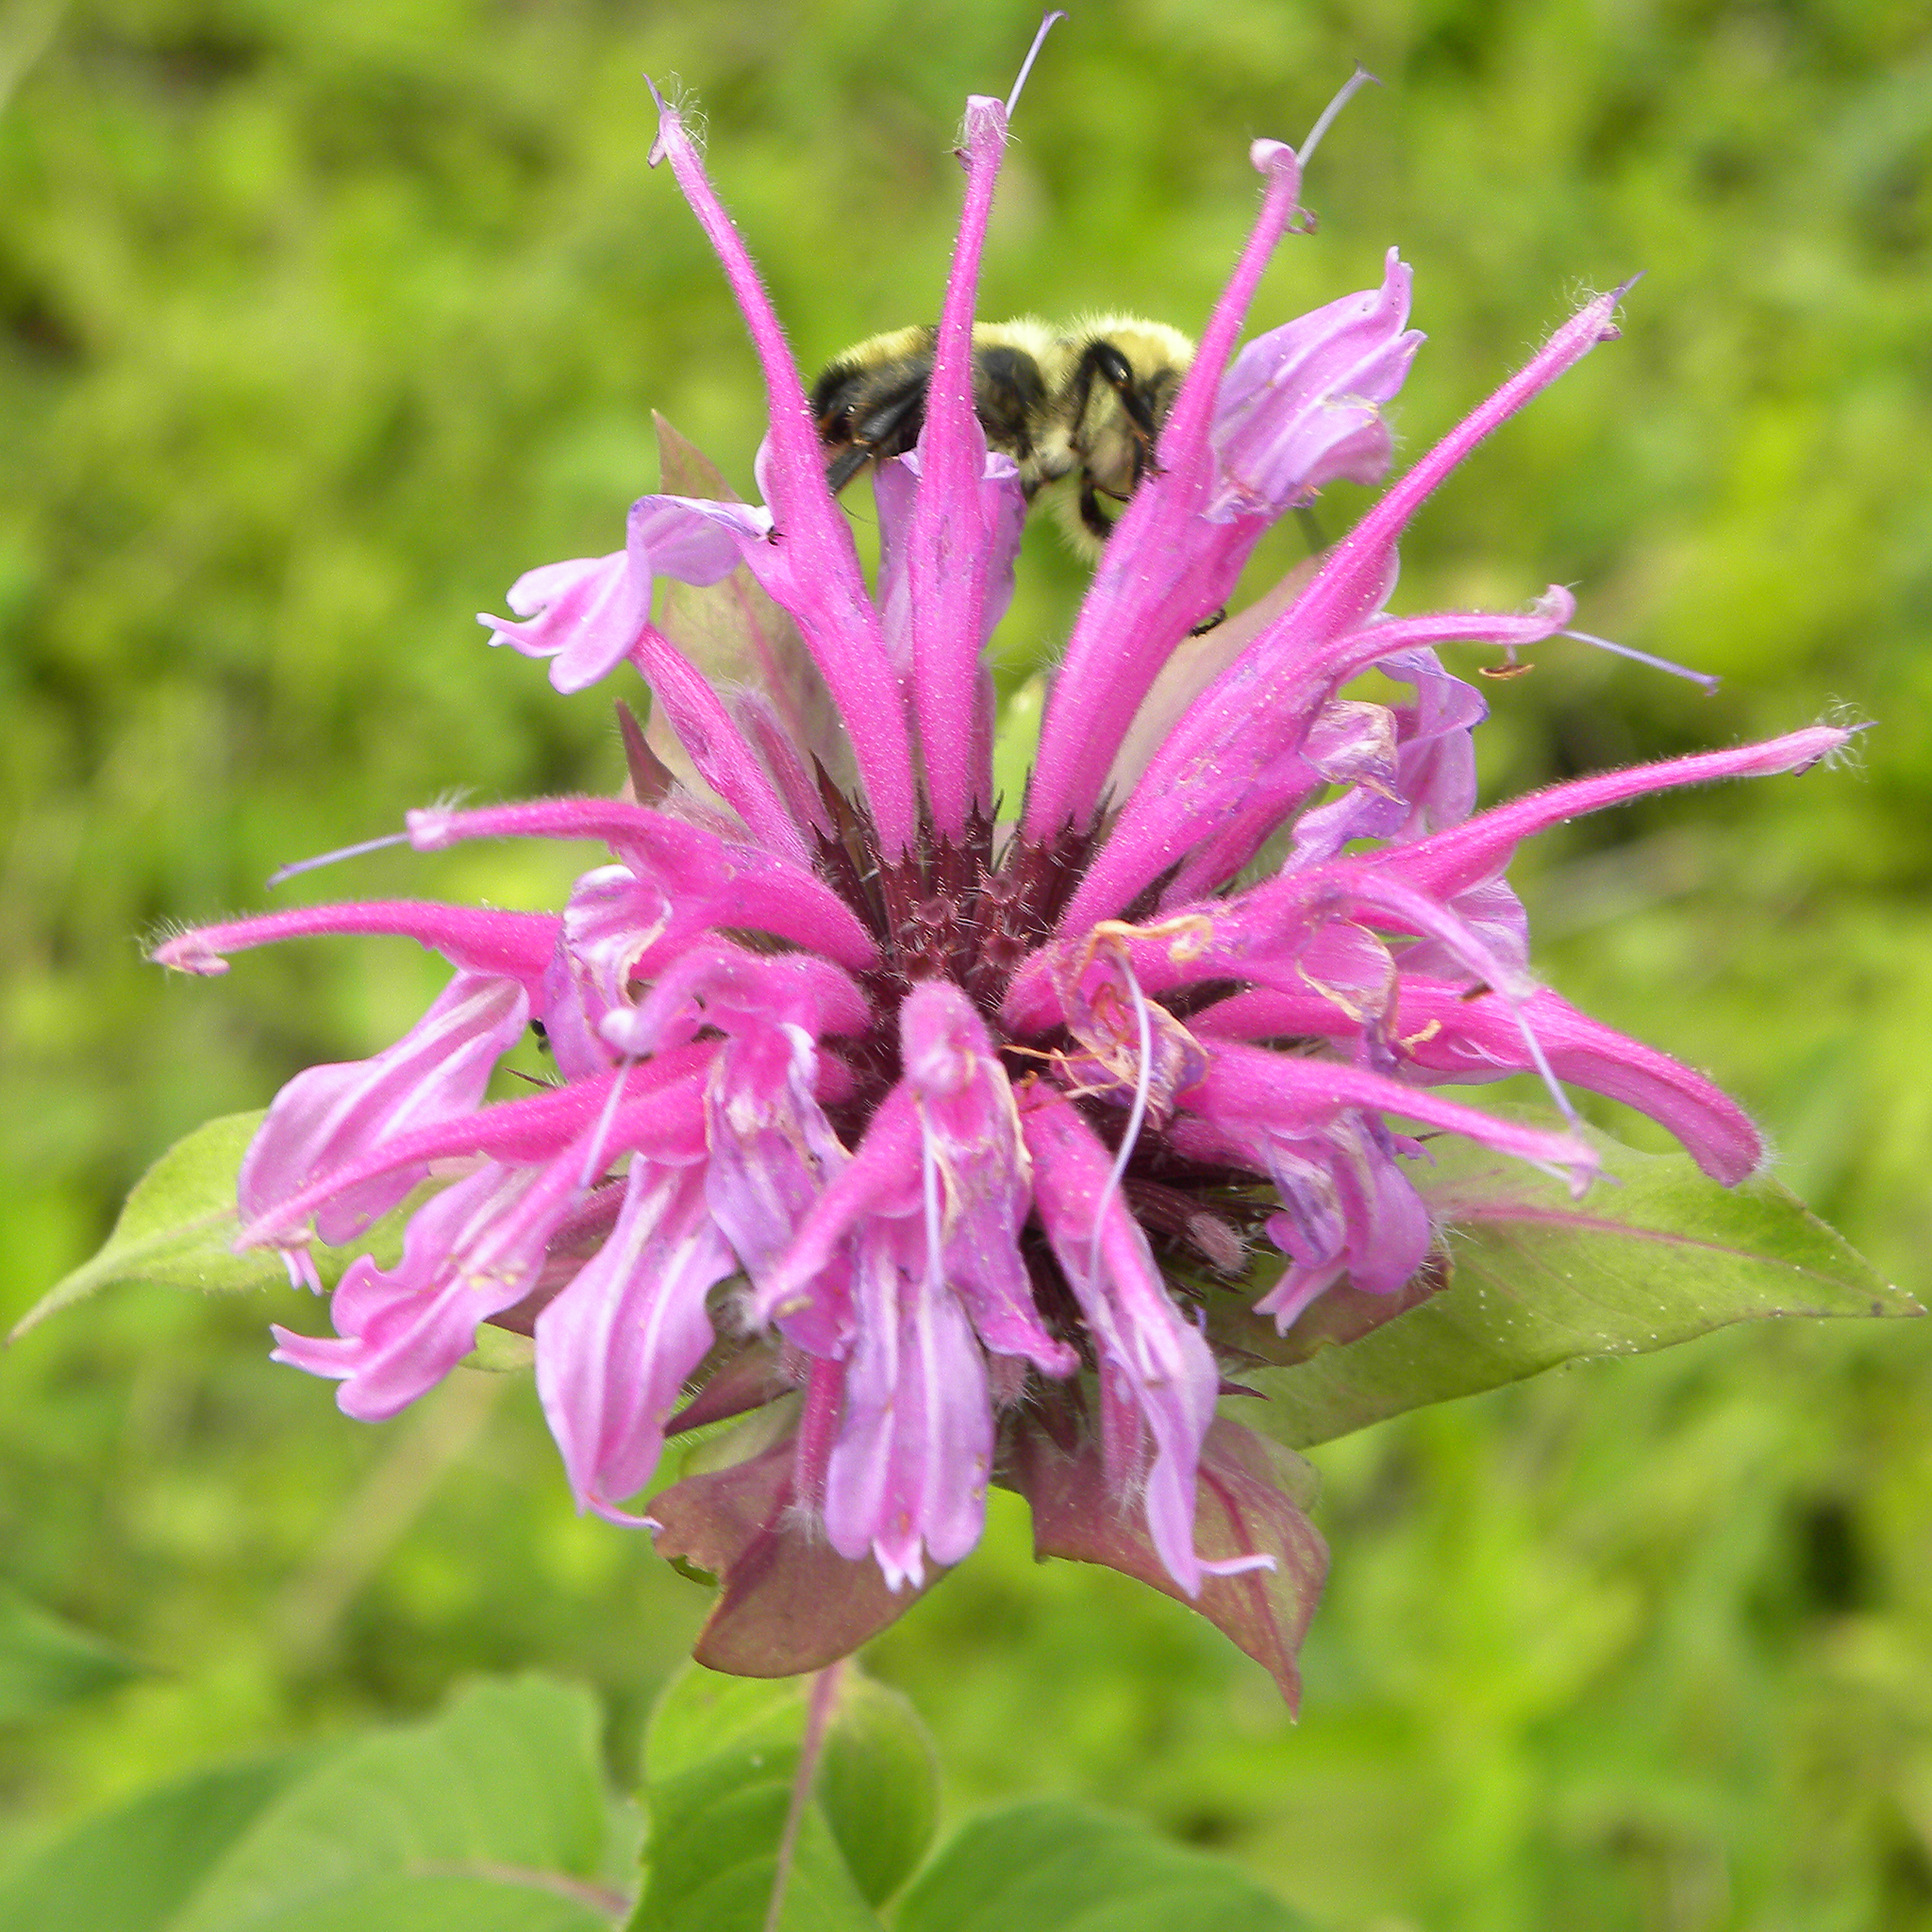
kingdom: Animalia
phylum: Arthropoda
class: Insecta
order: Hymenoptera
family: Apidae
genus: Bombus
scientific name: Bombus bimaculatus
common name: Two-spotted bumble bee
